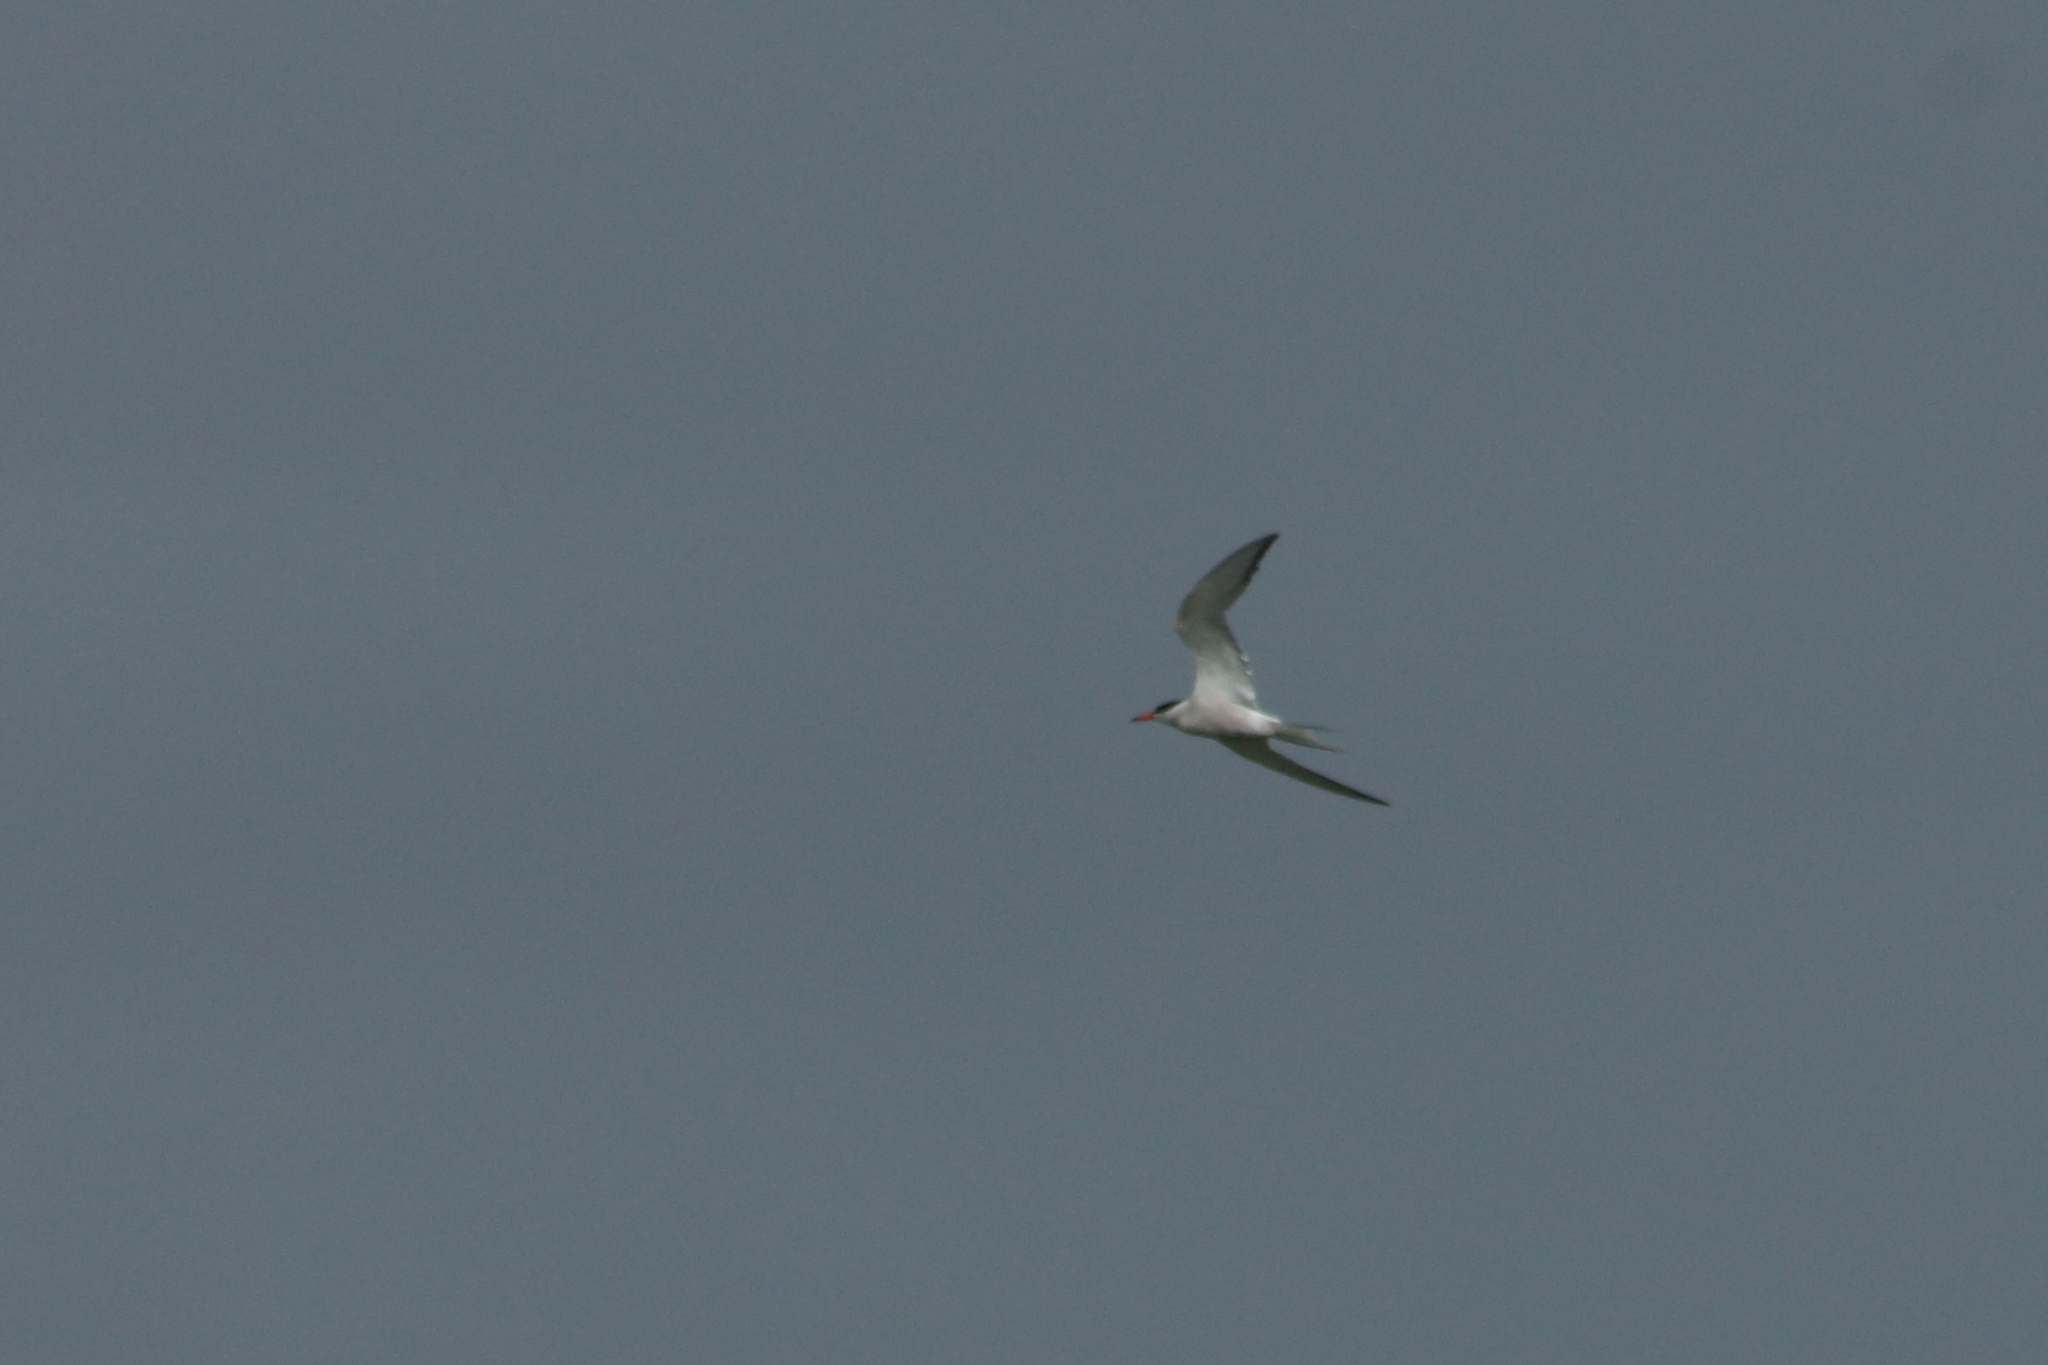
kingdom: Animalia
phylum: Chordata
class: Aves
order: Charadriiformes
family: Laridae
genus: Sterna
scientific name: Sterna hirundo
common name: Common tern
